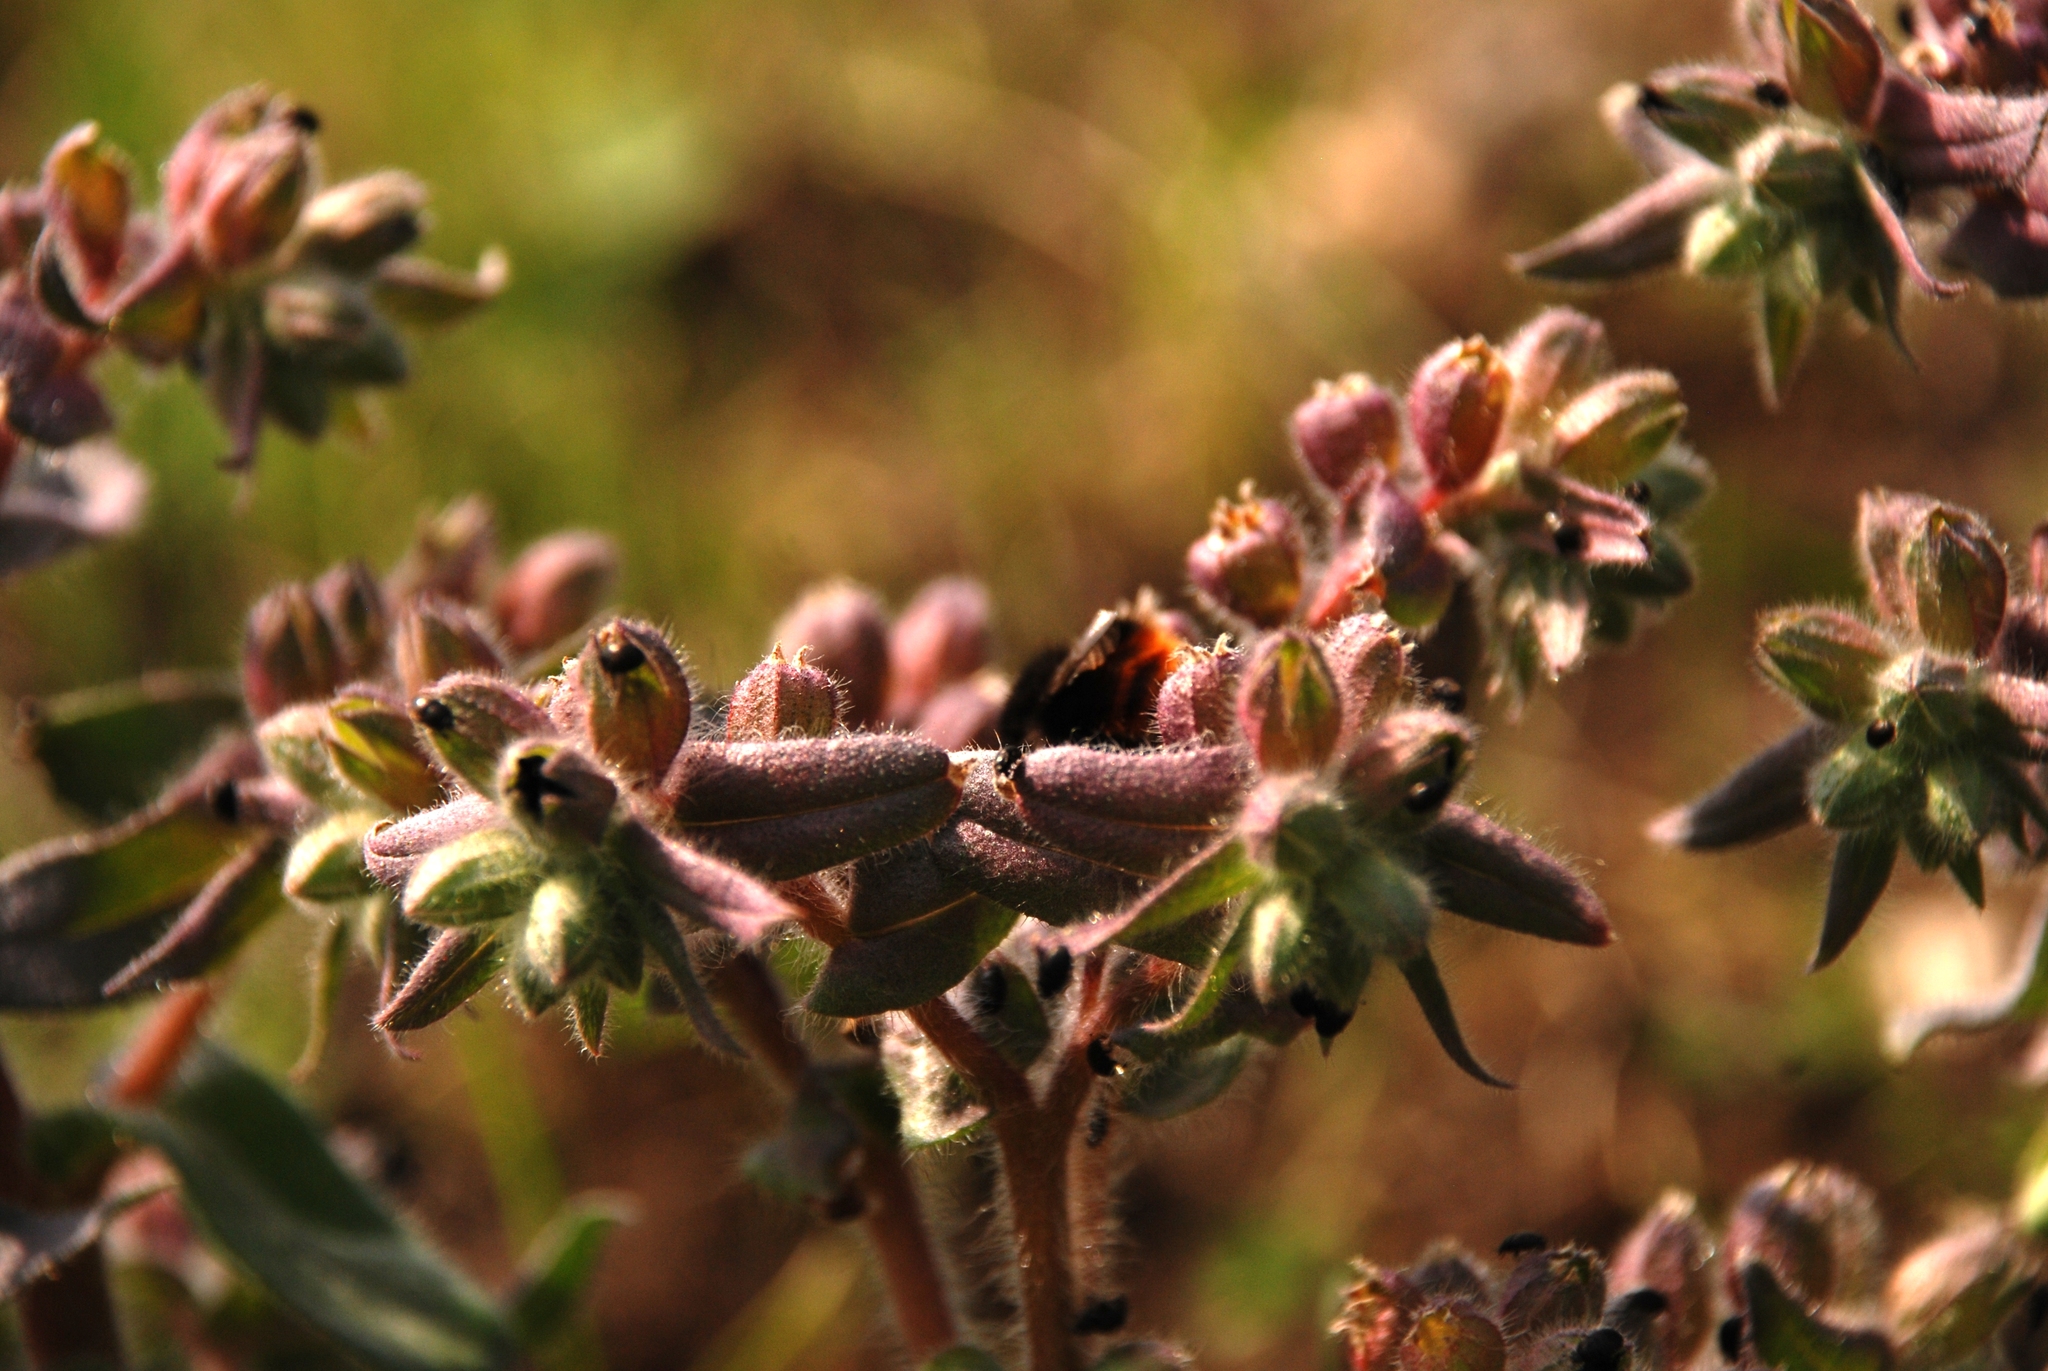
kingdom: Plantae
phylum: Tracheophyta
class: Magnoliopsida
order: Boraginales
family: Boraginaceae
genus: Nonea
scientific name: Nonea pulla
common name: Brown nonea
